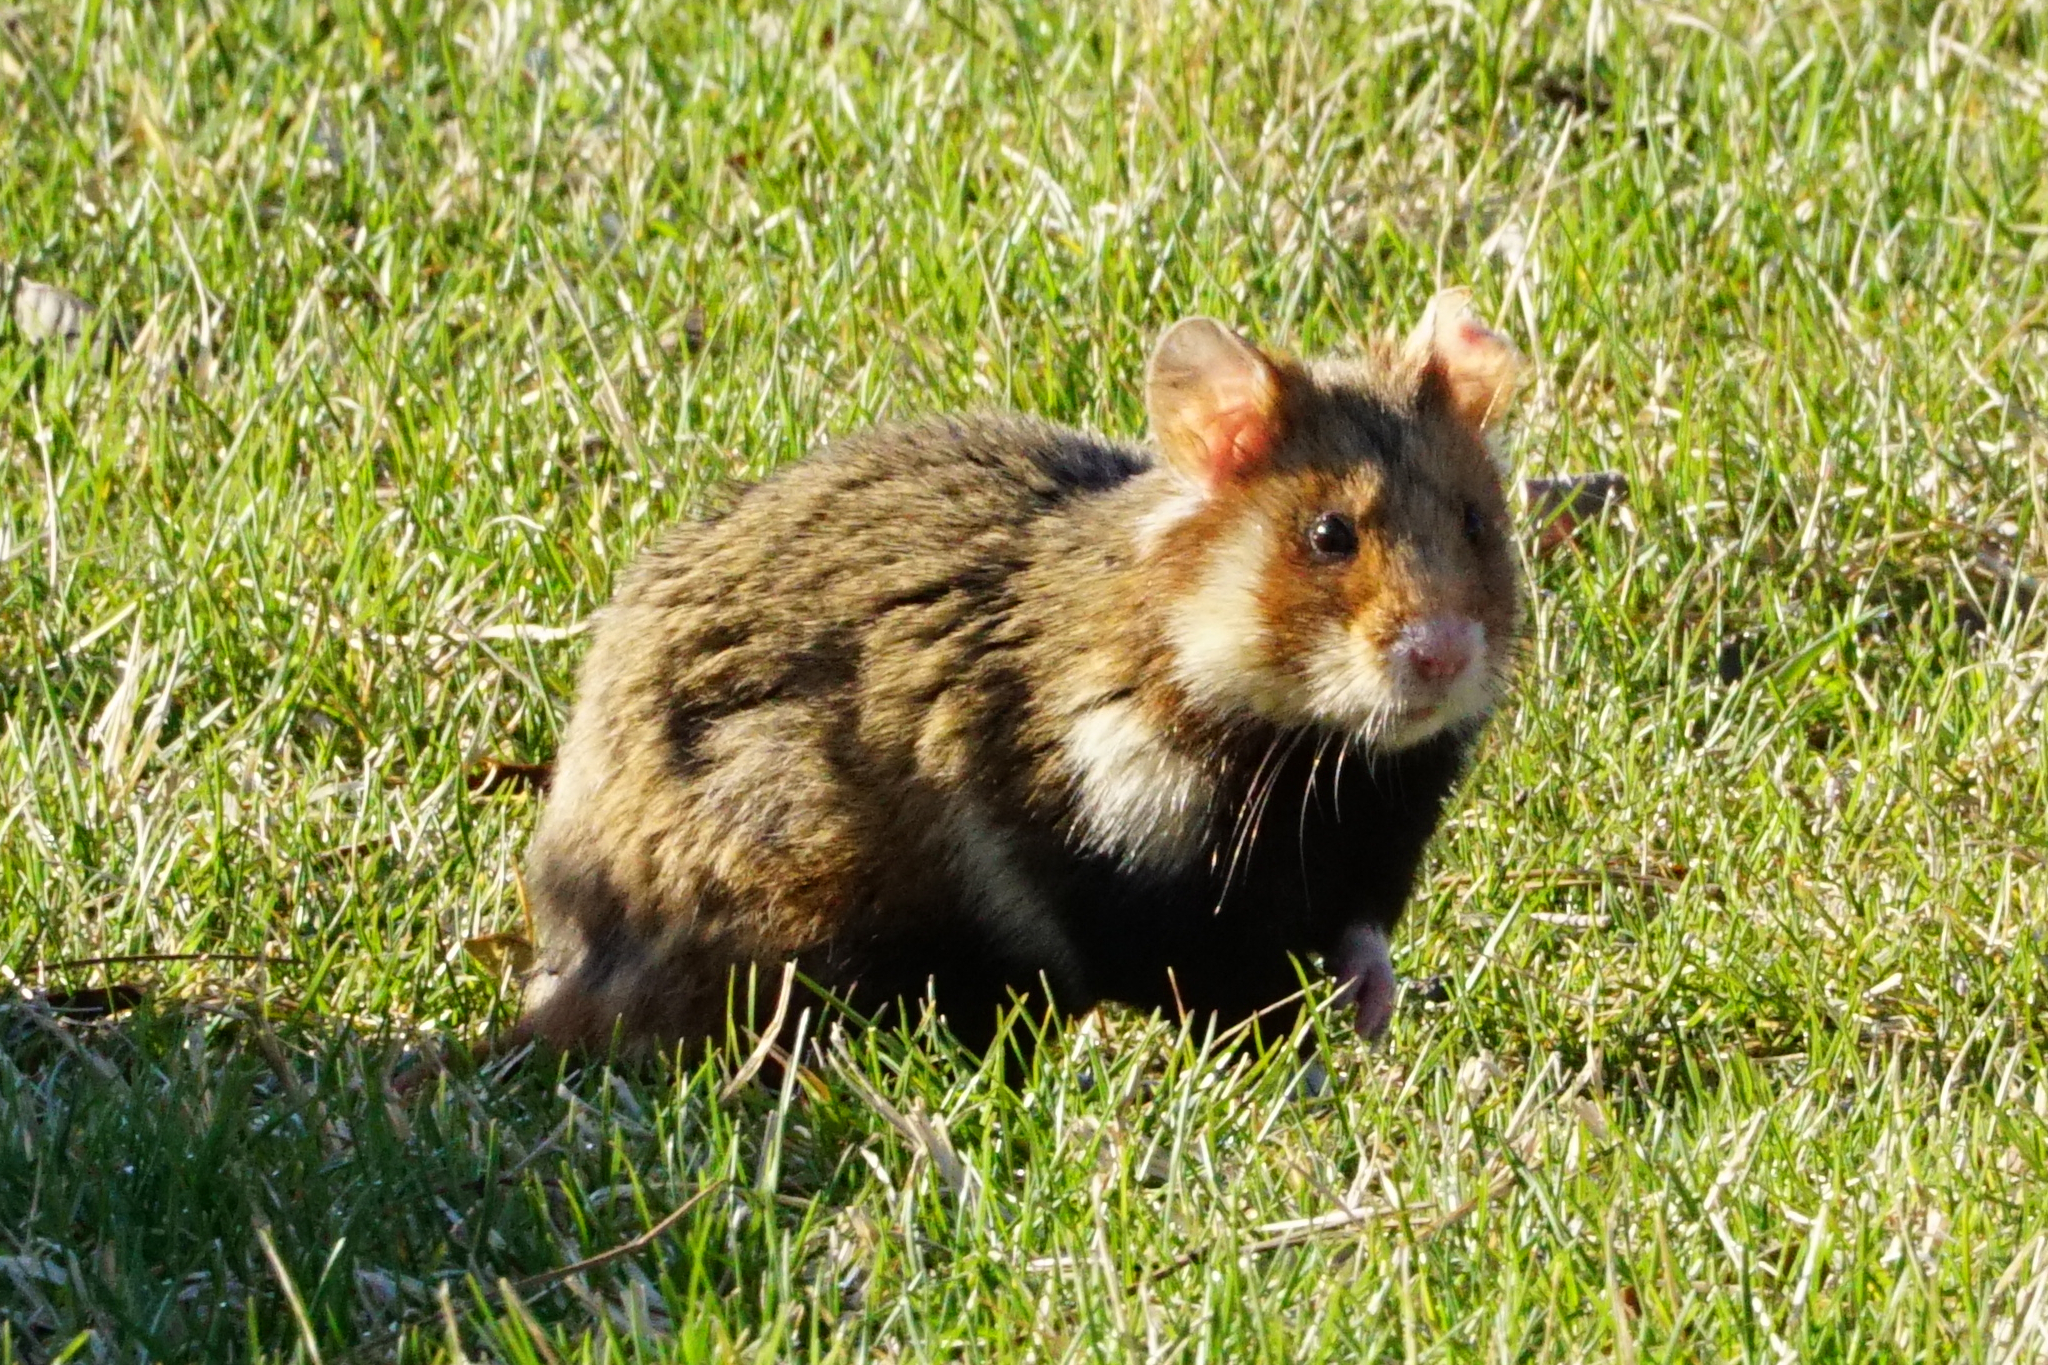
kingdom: Animalia
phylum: Chordata
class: Mammalia
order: Rodentia
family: Cricetidae
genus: Cricetus
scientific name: Cricetus cricetus
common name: Common hamster
